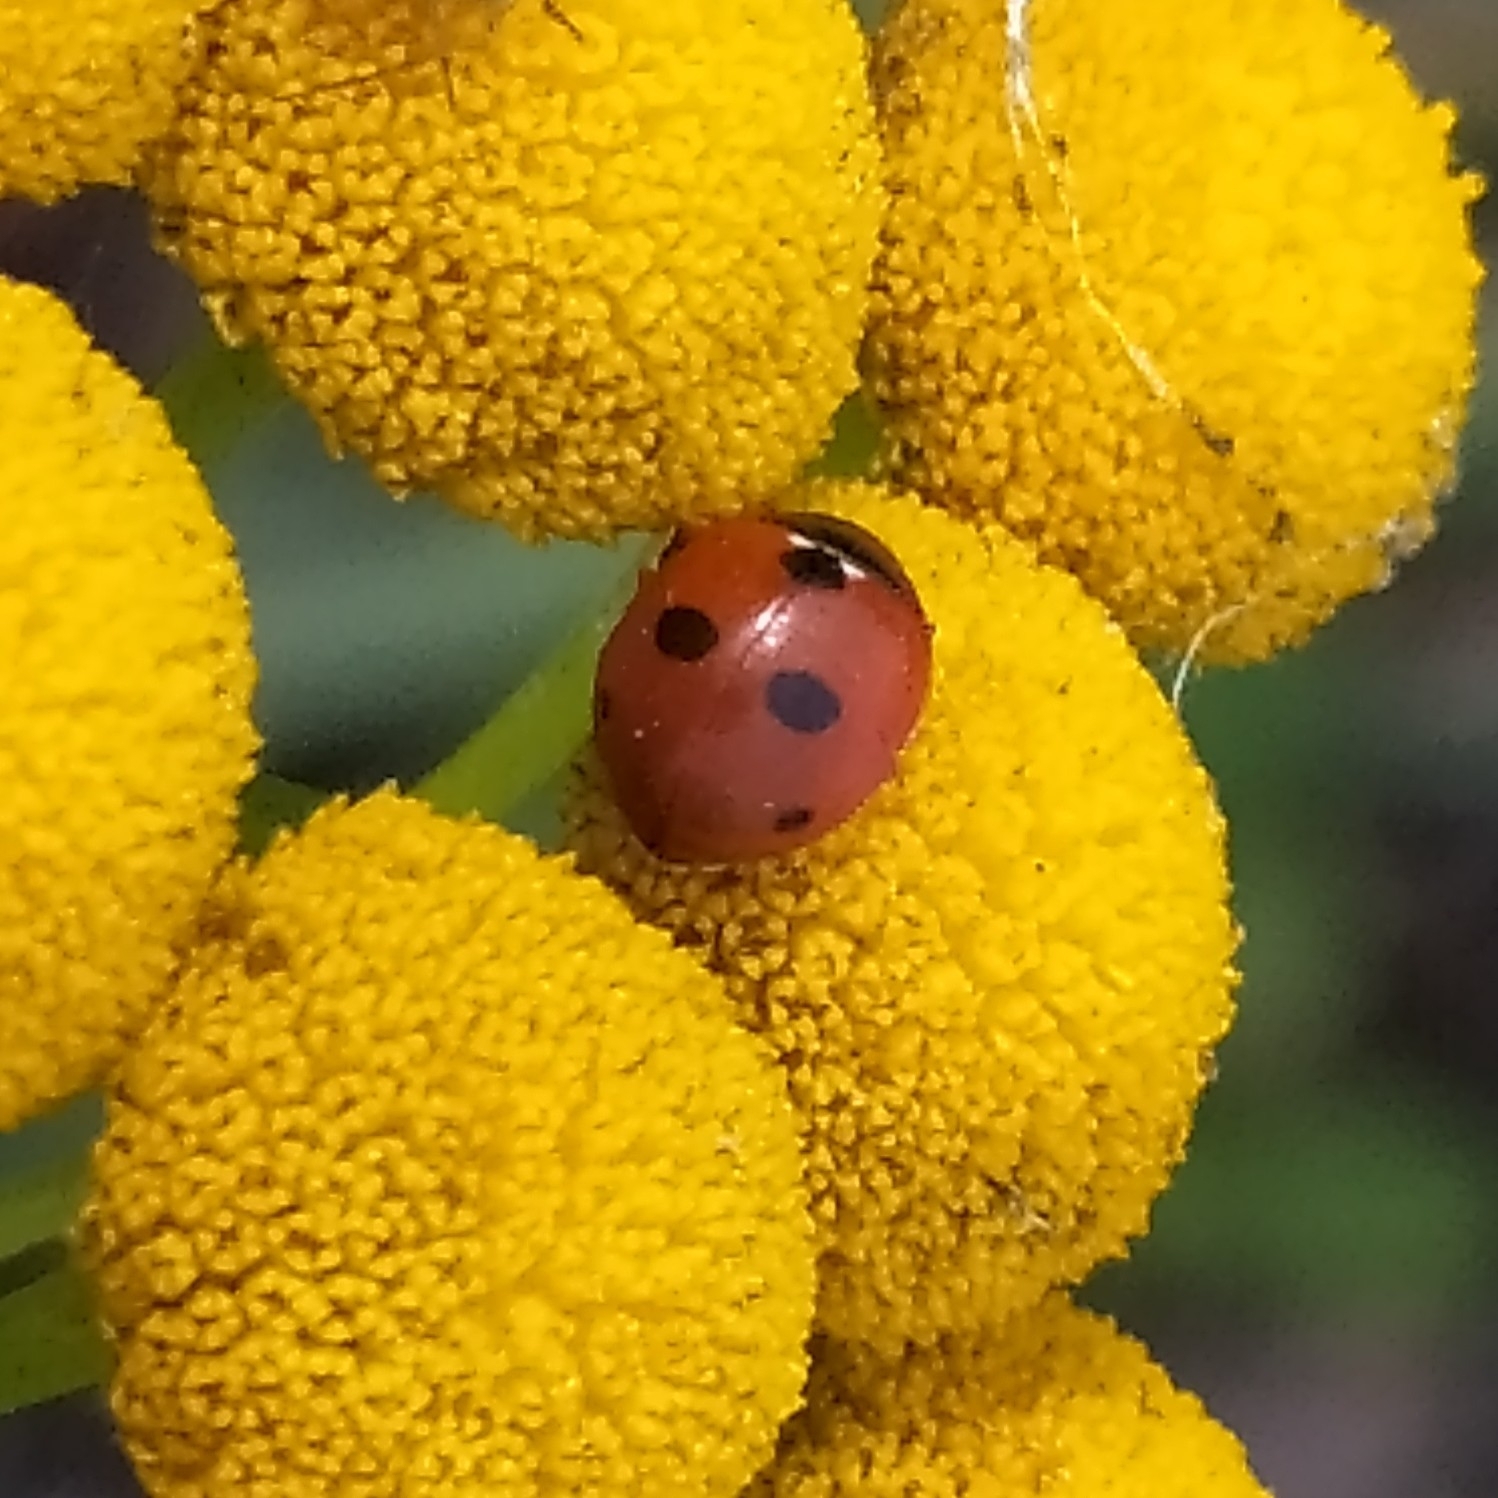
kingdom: Animalia
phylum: Arthropoda
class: Insecta
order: Coleoptera
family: Coccinellidae
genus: Coccinella
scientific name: Coccinella quinquepunctata
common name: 5-spot ladybird
